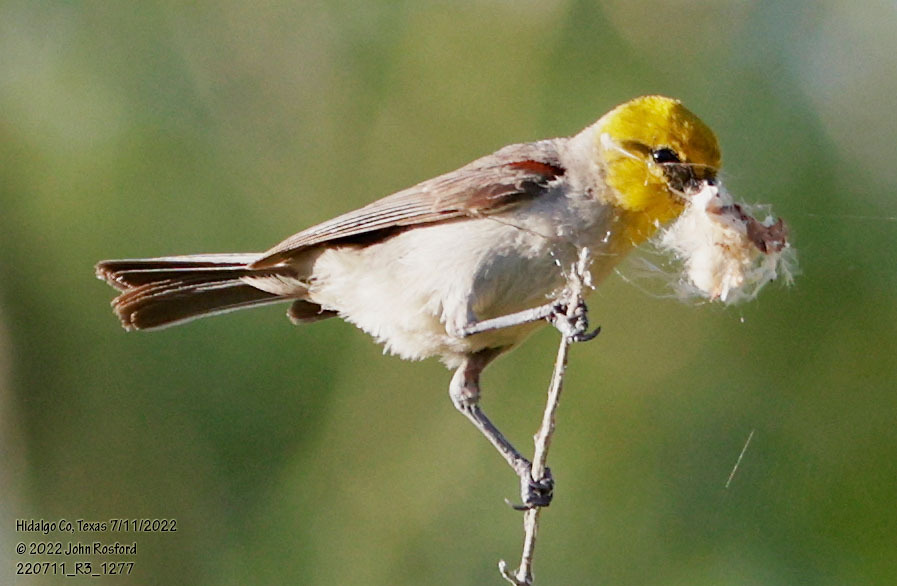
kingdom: Animalia
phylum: Chordata
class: Aves
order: Passeriformes
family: Remizidae
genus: Auriparus
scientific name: Auriparus flaviceps
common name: Verdin
